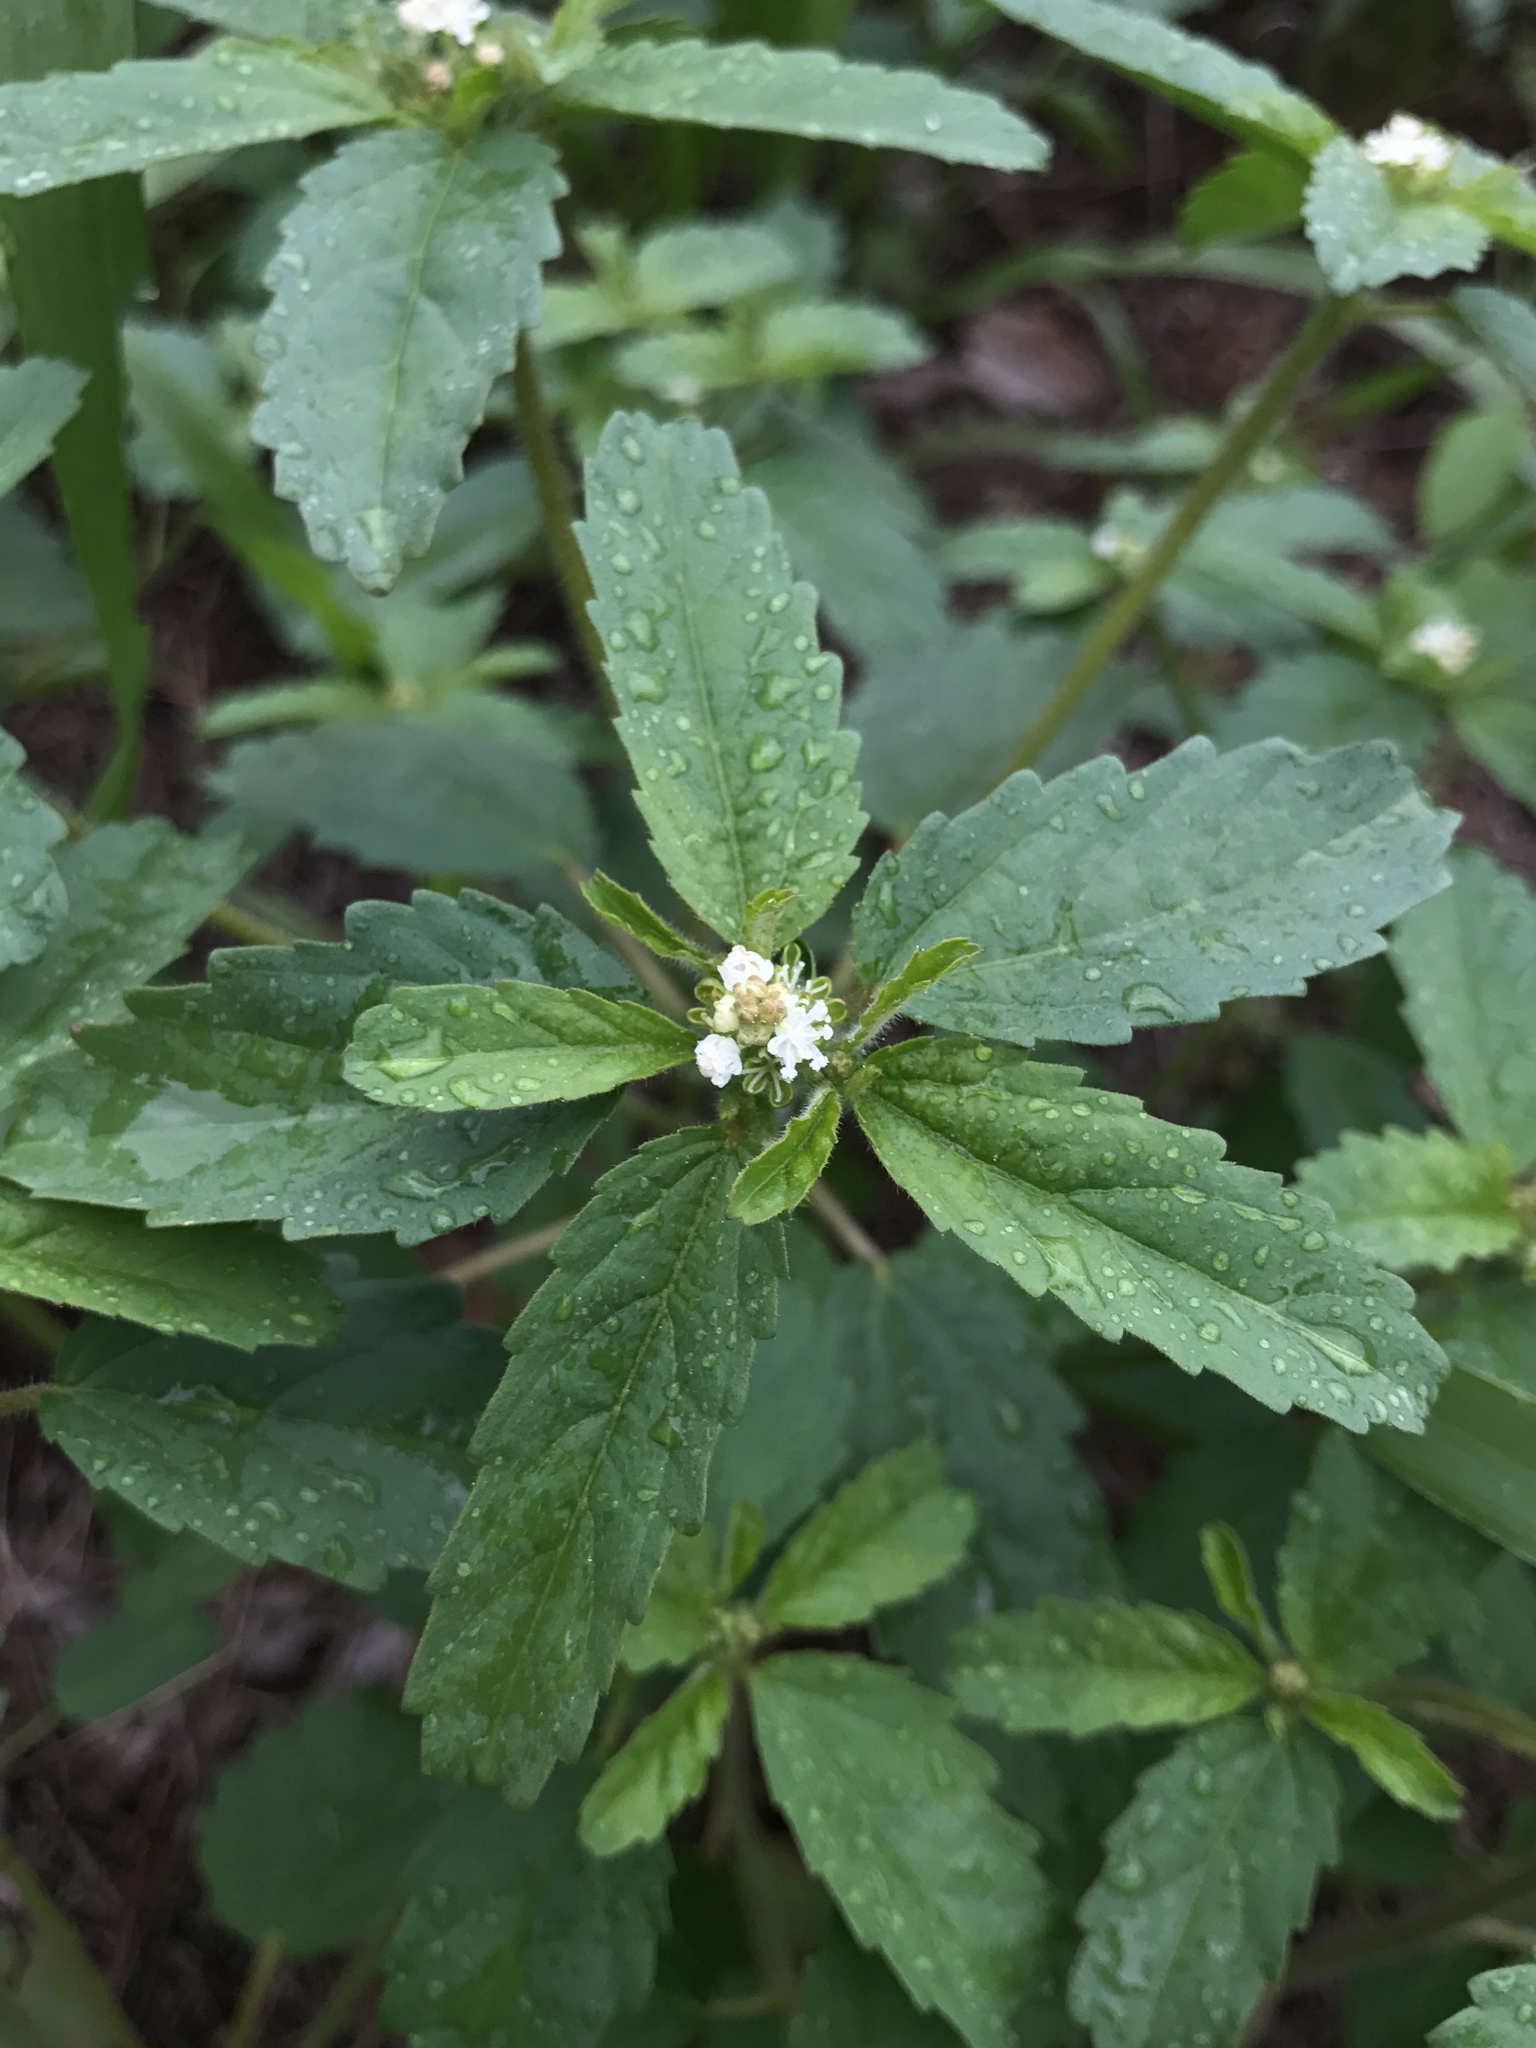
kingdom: Plantae
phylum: Tracheophyta
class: Magnoliopsida
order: Malpighiales
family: Euphorbiaceae
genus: Croton
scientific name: Croton glandulosus
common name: Tropic croton
